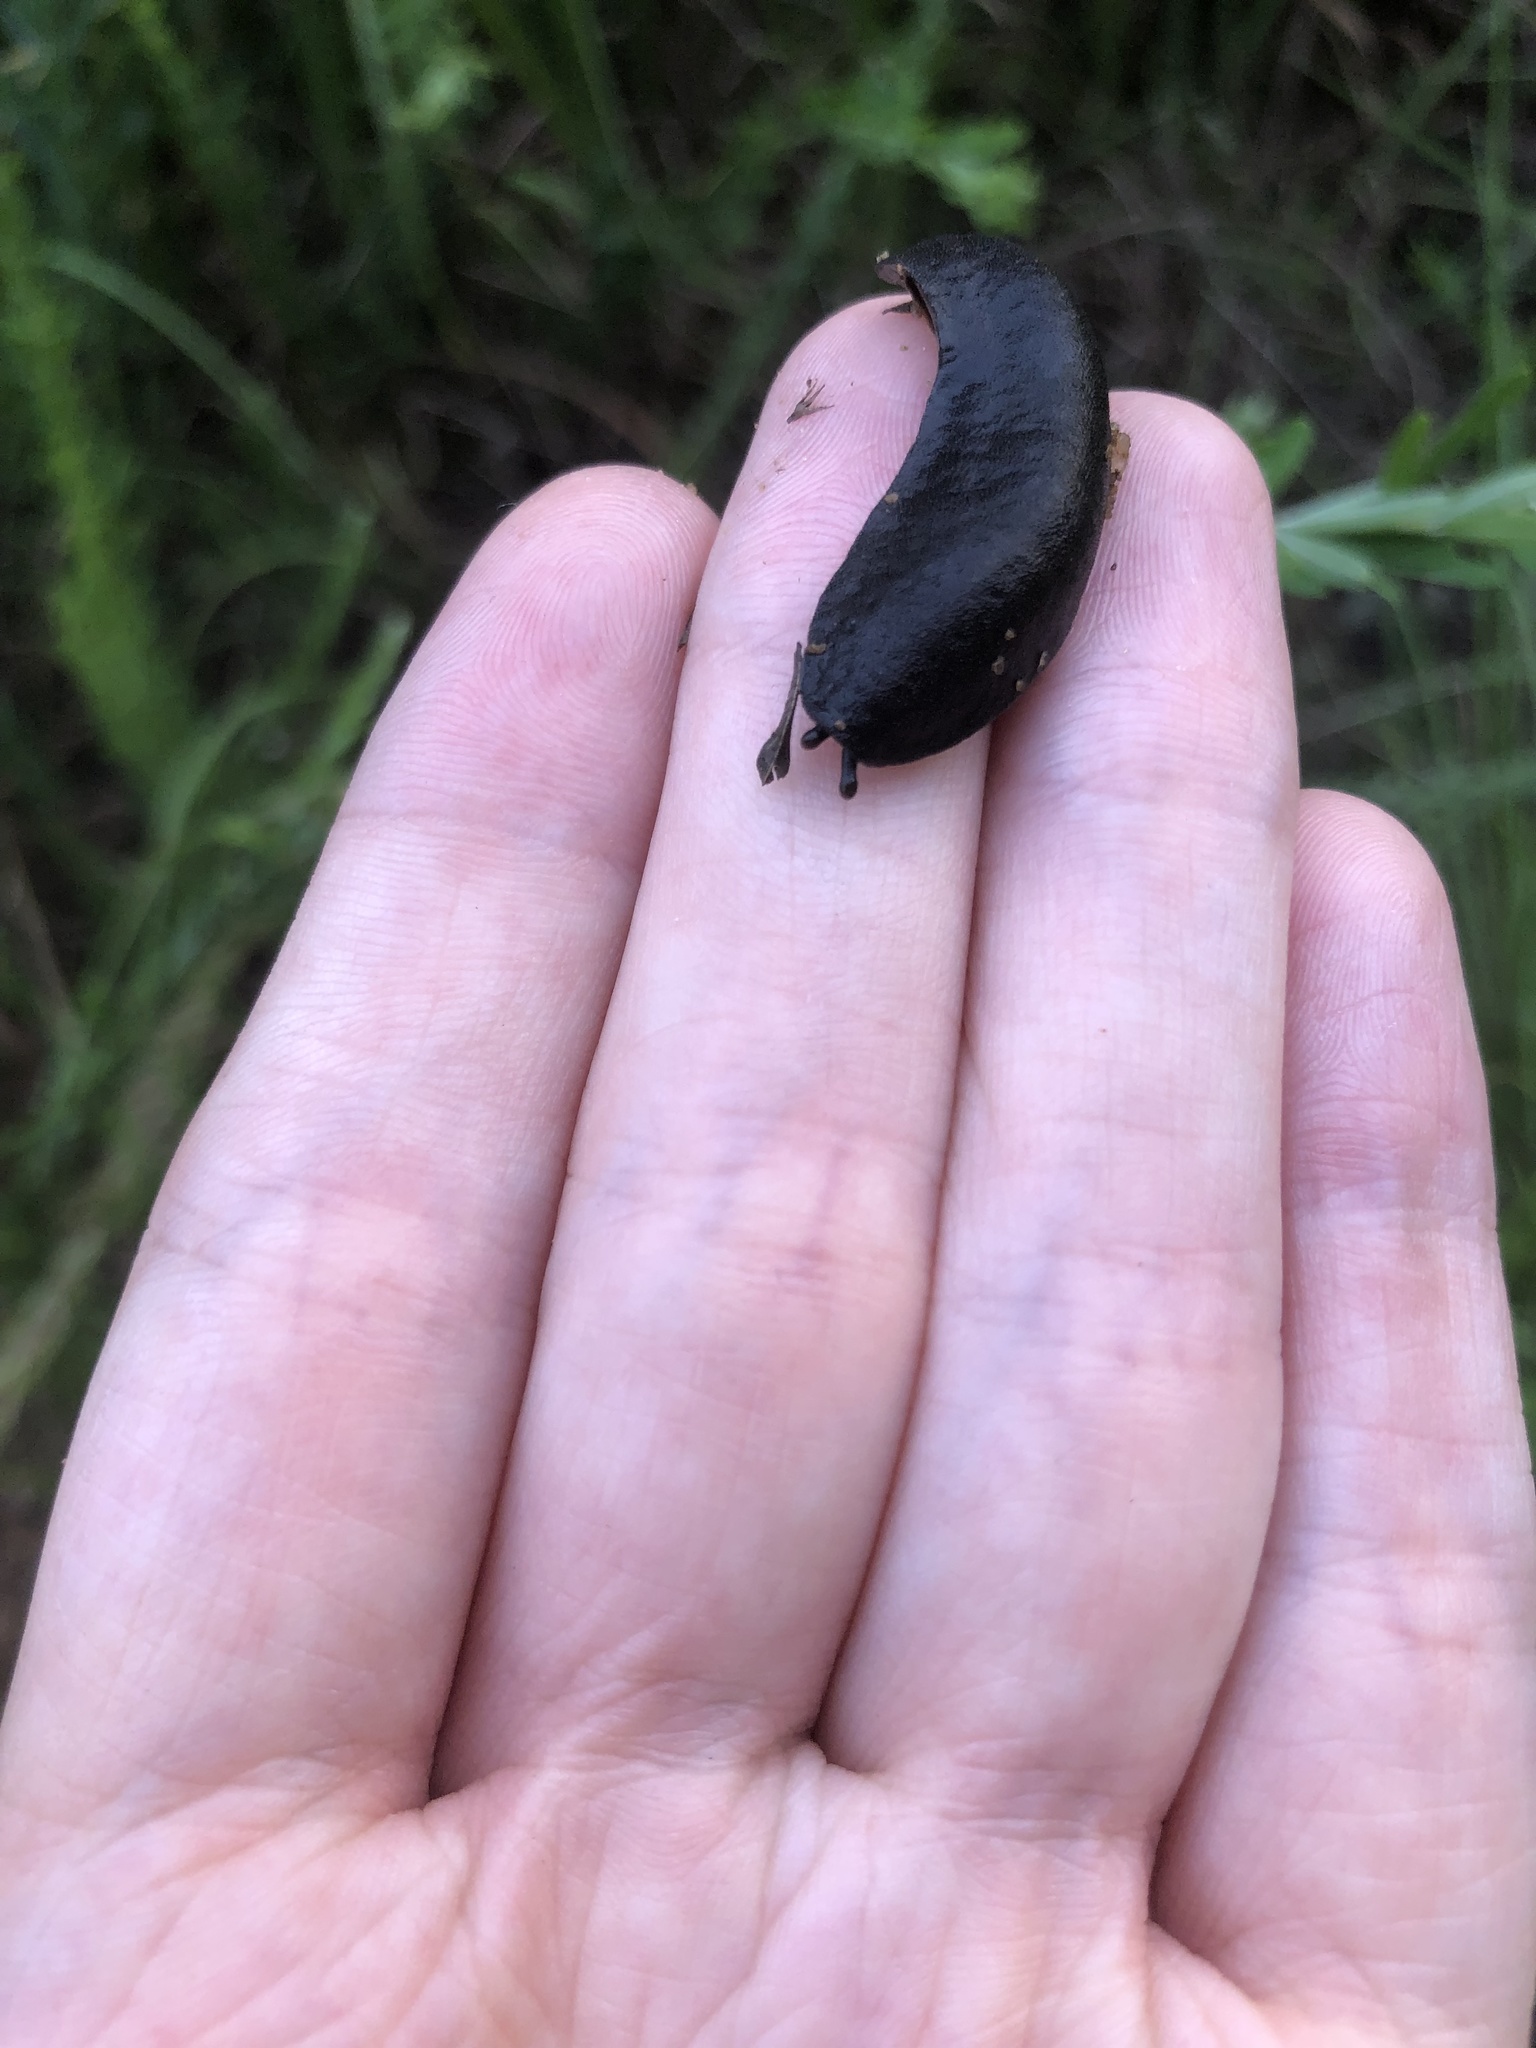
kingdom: Animalia
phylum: Mollusca
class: Gastropoda
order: Systellommatophora
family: Veronicellidae
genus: Belocaulus
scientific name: Belocaulus angustipes
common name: Black velvet leatherleaf slug
